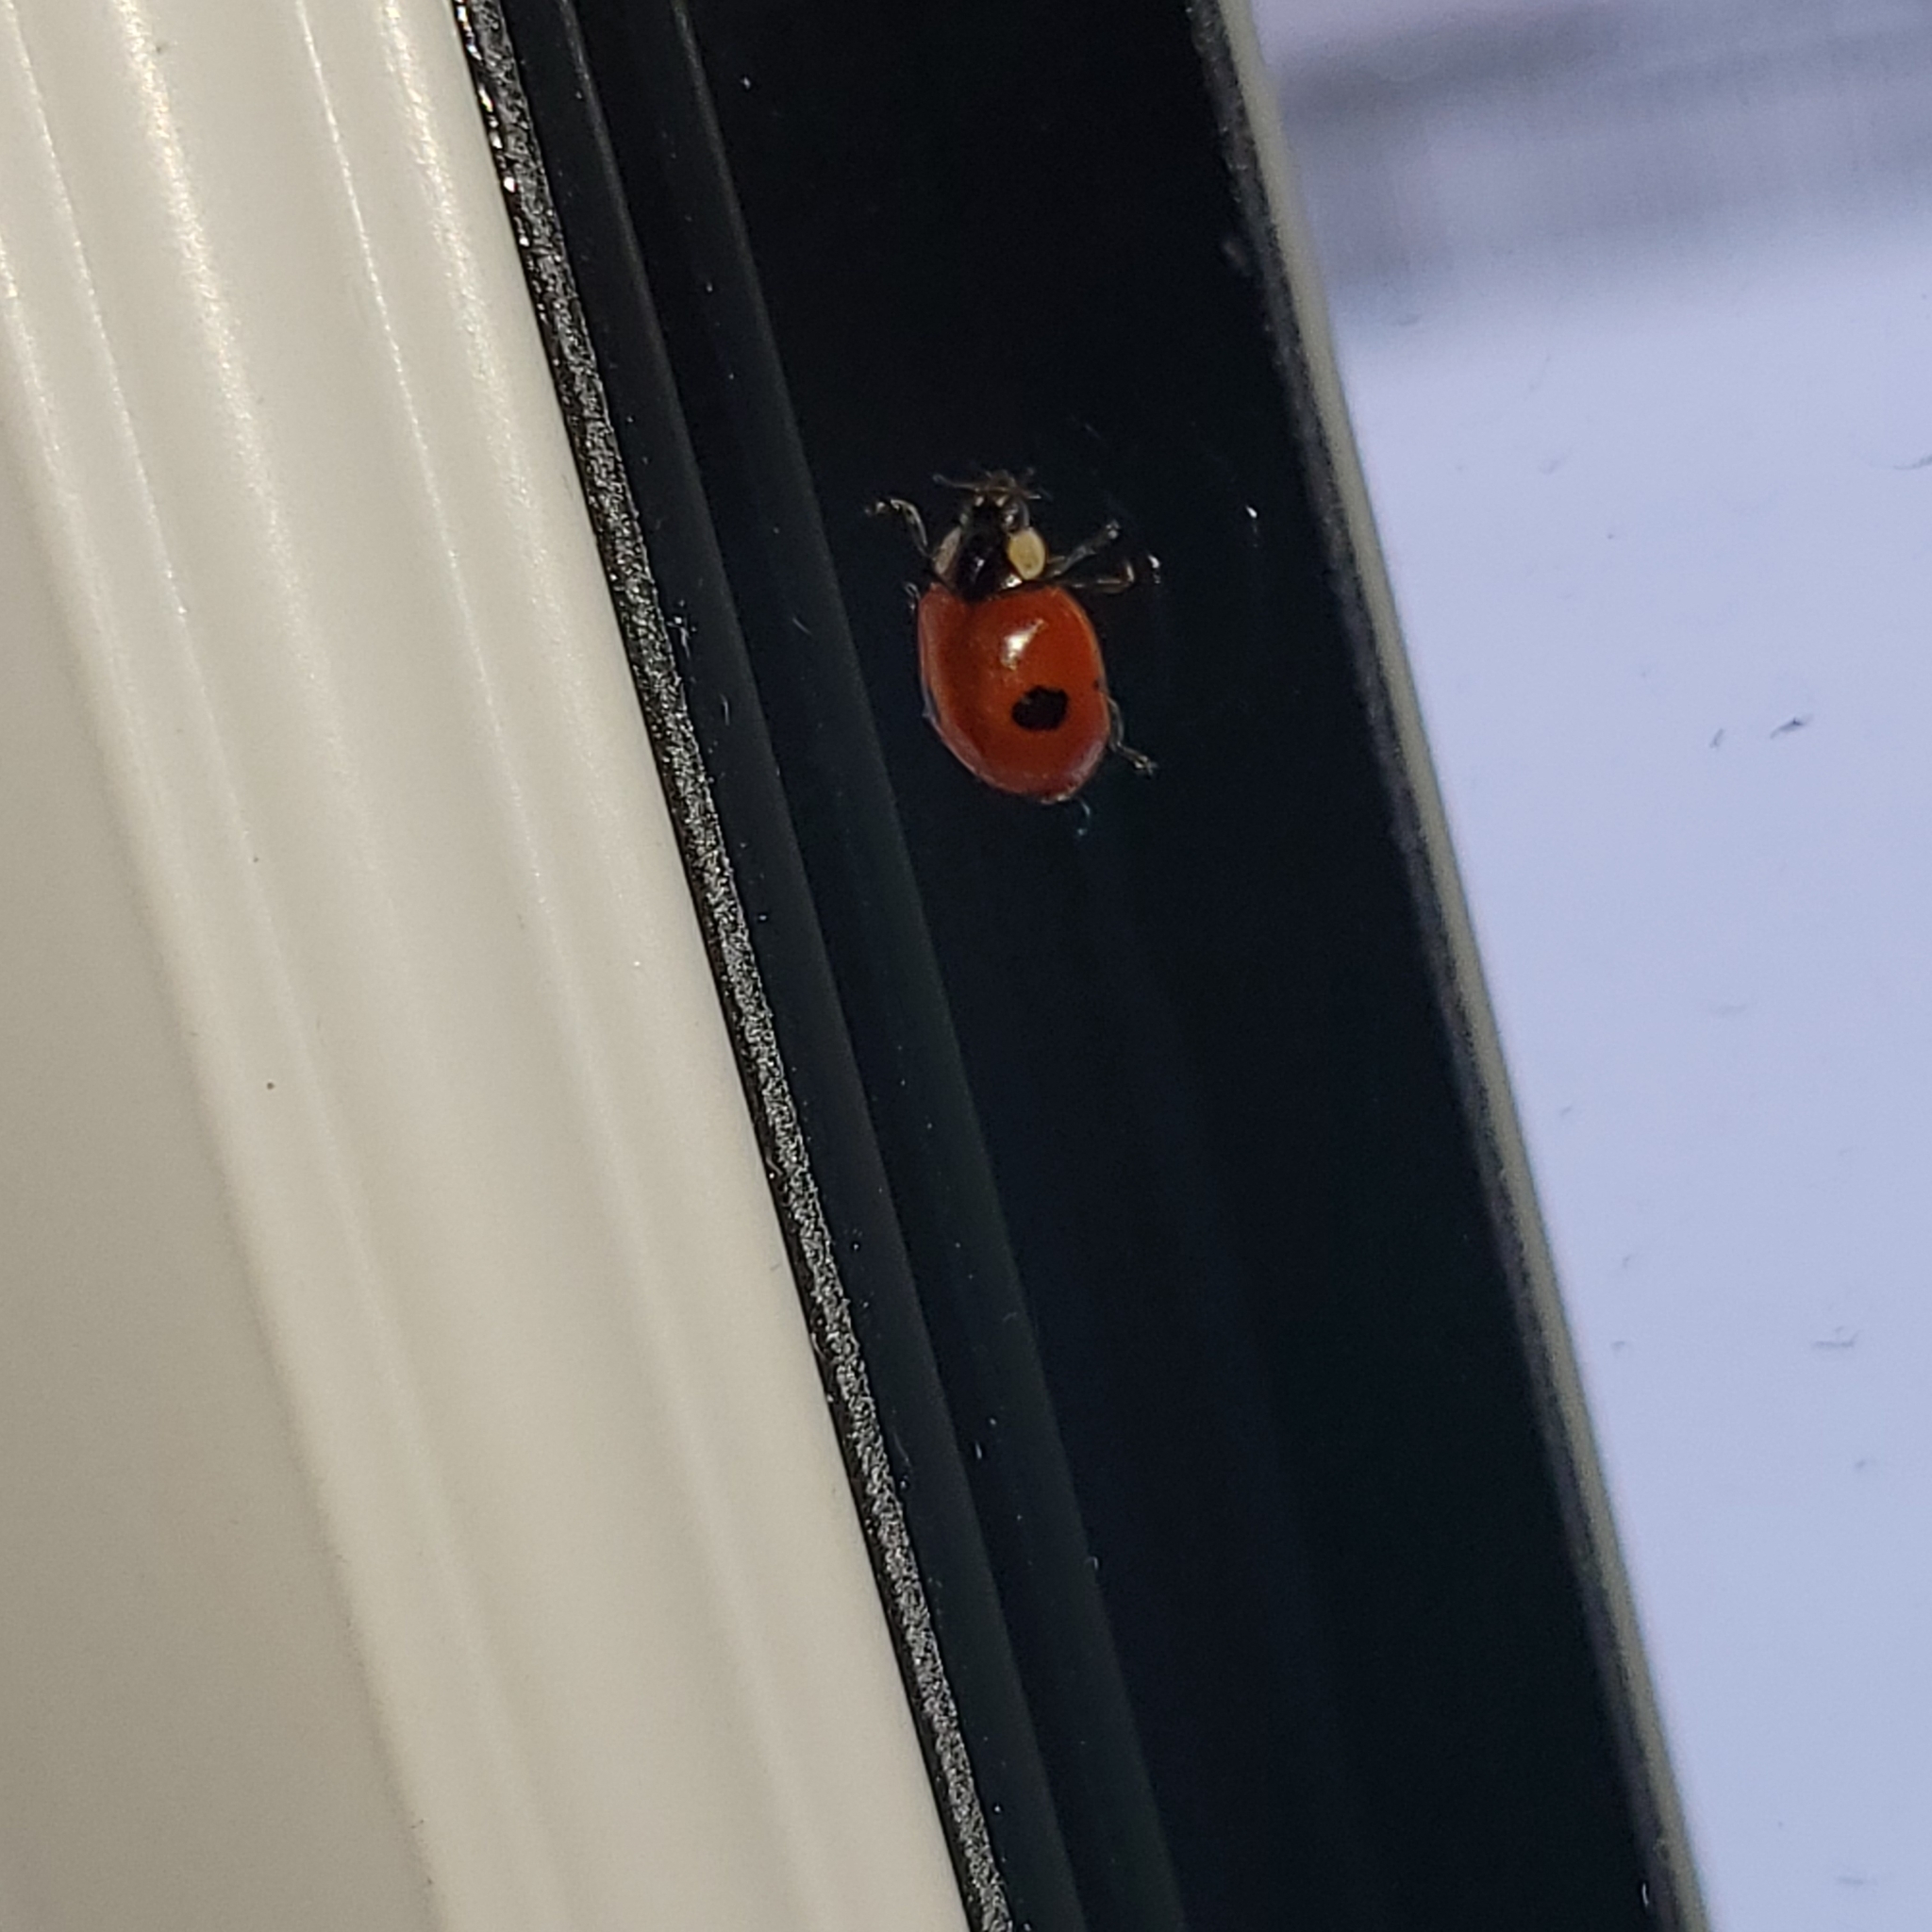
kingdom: Animalia
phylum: Arthropoda
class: Insecta
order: Coleoptera
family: Coccinellidae
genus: Adalia
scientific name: Adalia bipunctata
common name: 2-spot ladybird
